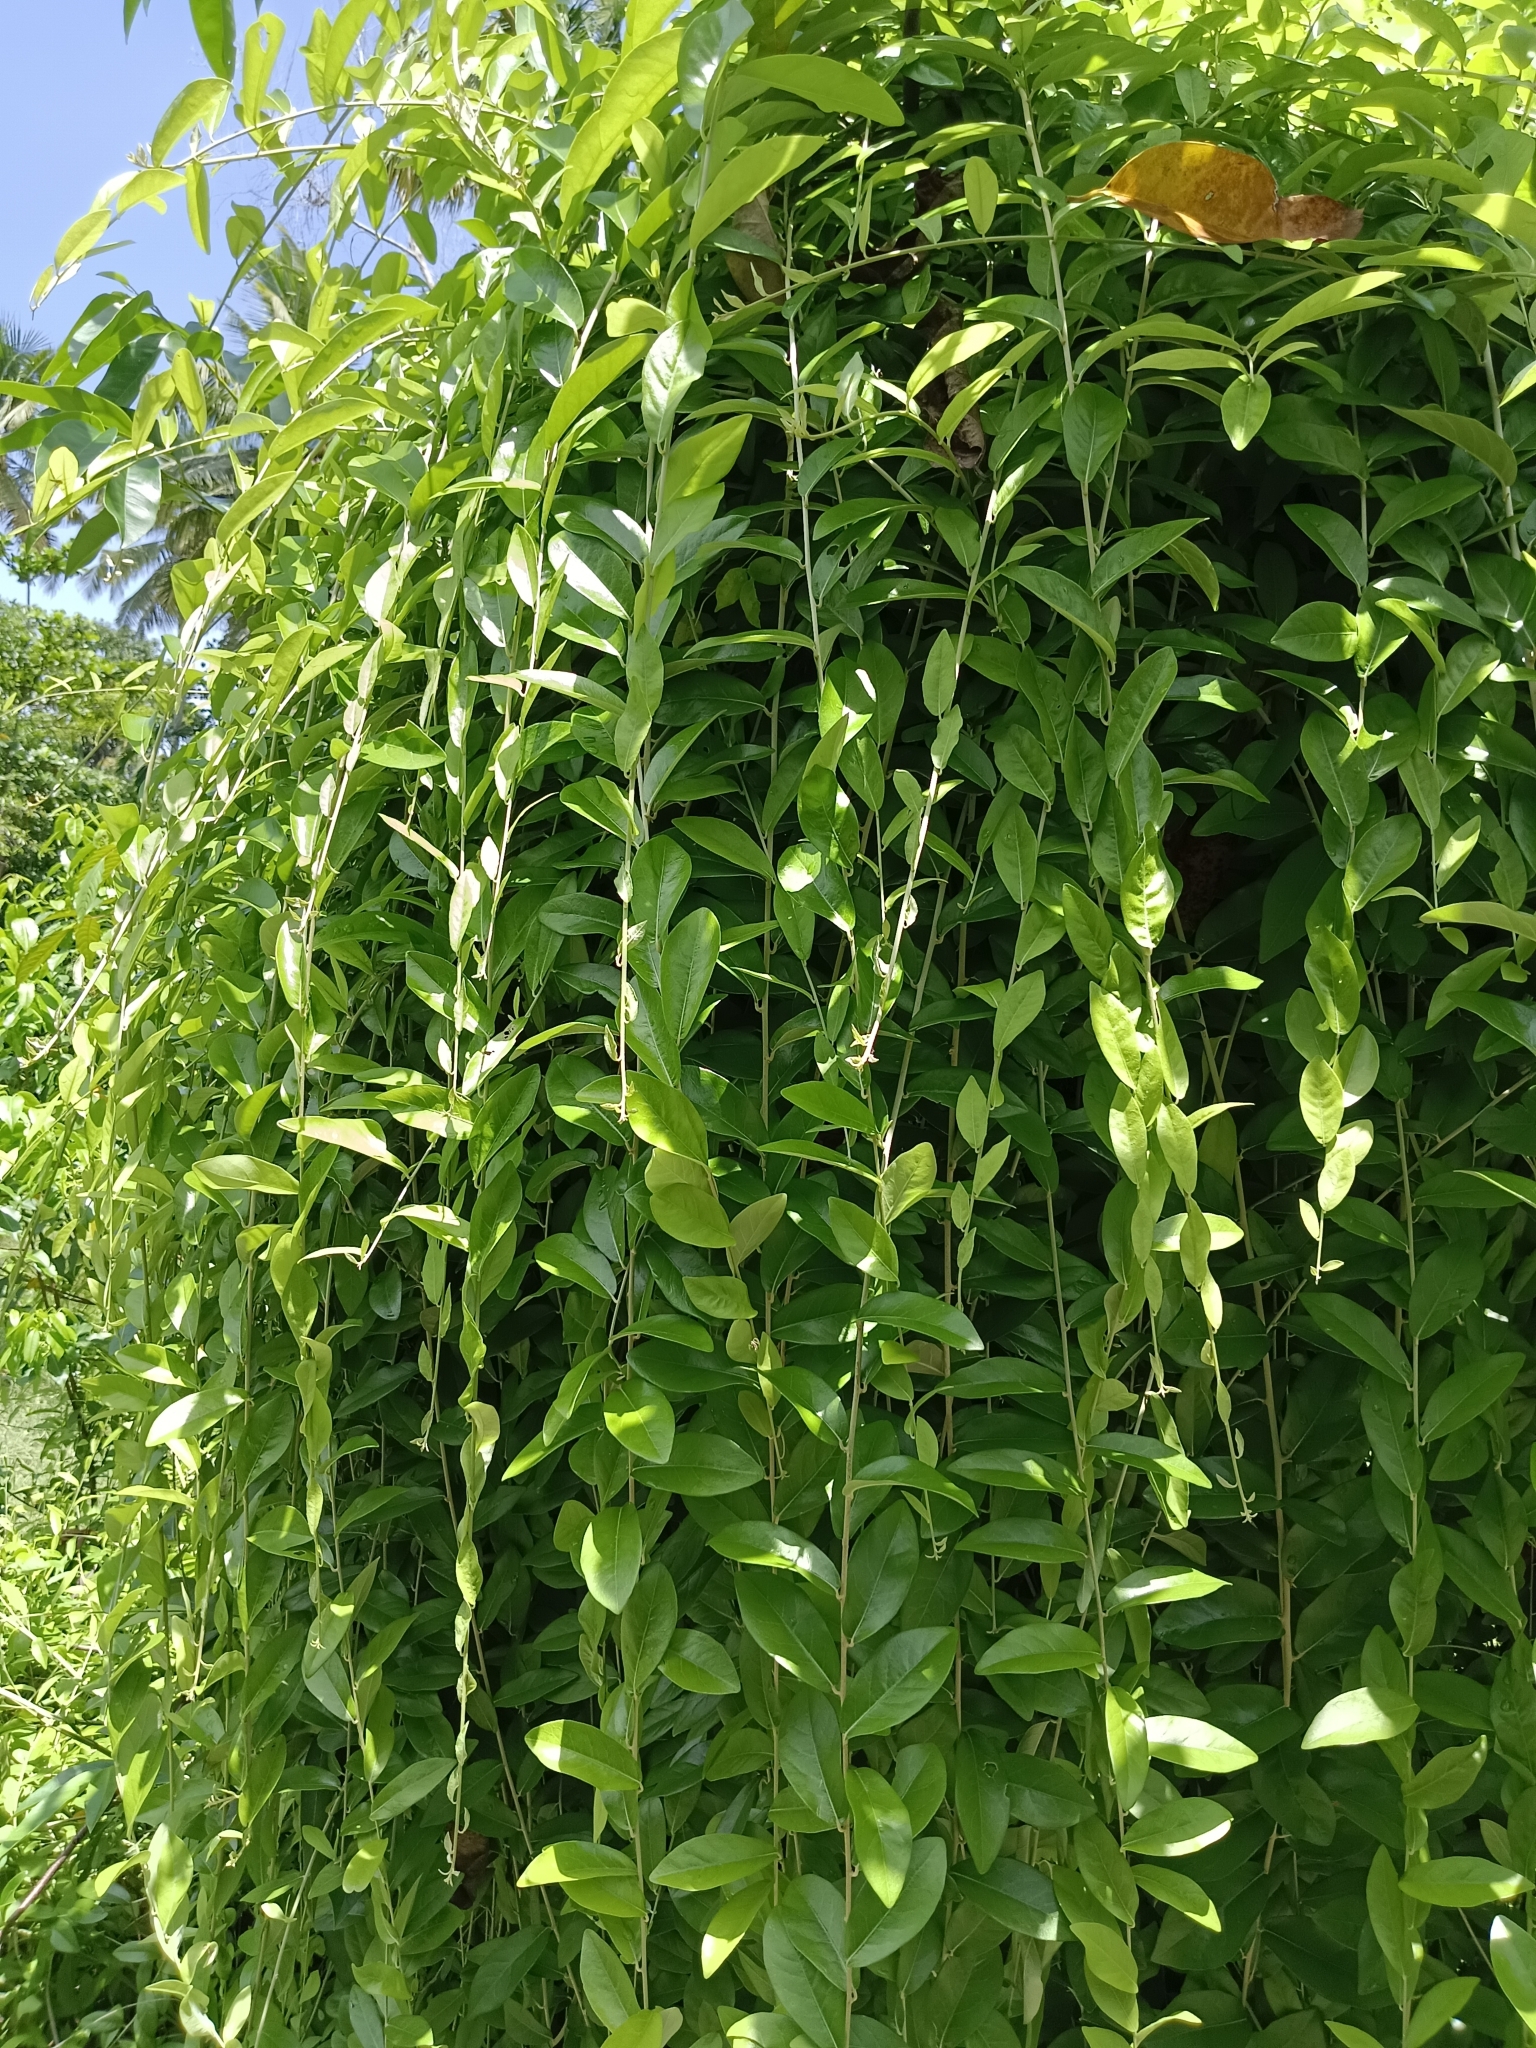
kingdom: Plantae
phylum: Tracheophyta
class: Magnoliopsida
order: Asterales
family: Asteraceae
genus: Tarlmounia
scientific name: Tarlmounia elliptica
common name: Kheua sa lot
